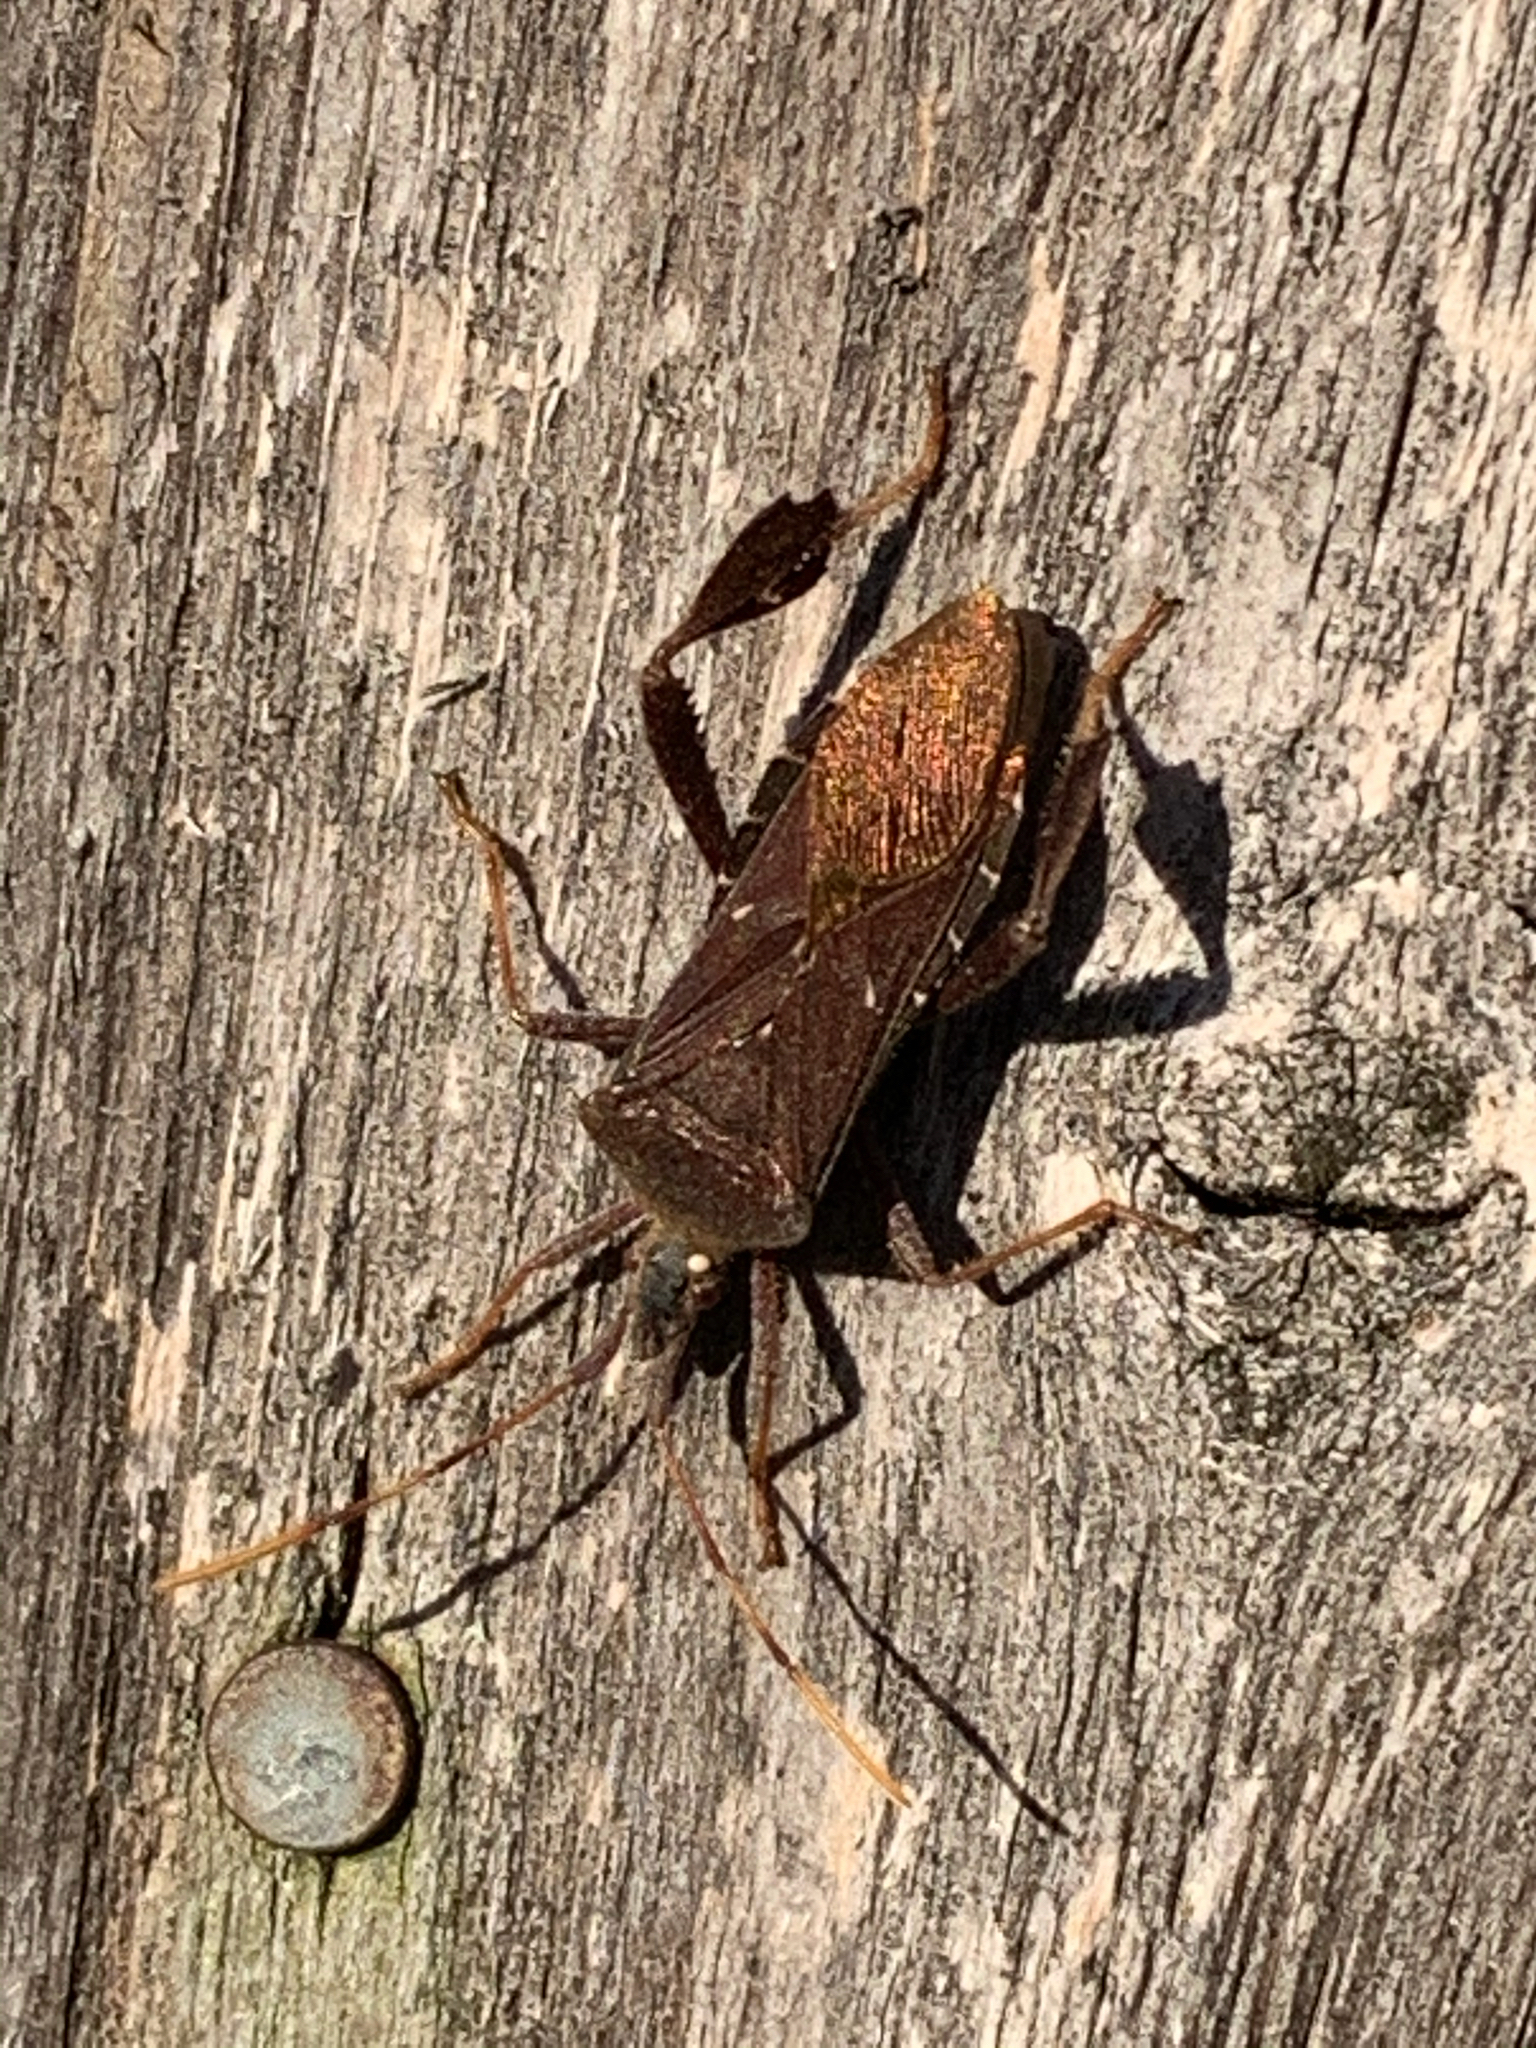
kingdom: Animalia
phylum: Arthropoda
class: Insecta
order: Hemiptera
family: Coreidae
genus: Leptoglossus
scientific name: Leptoglossus oppositus
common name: Northern leaf-footed bug
